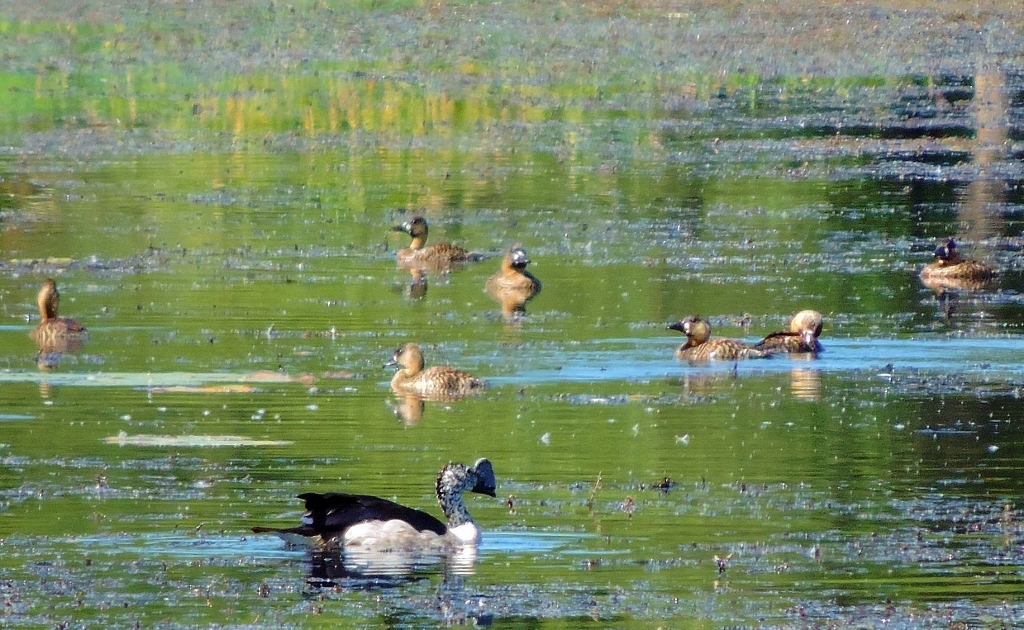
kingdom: Animalia
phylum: Chordata
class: Aves
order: Anseriformes
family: Anatidae
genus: Thalassornis
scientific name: Thalassornis leuconotus
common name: White-backed duck
